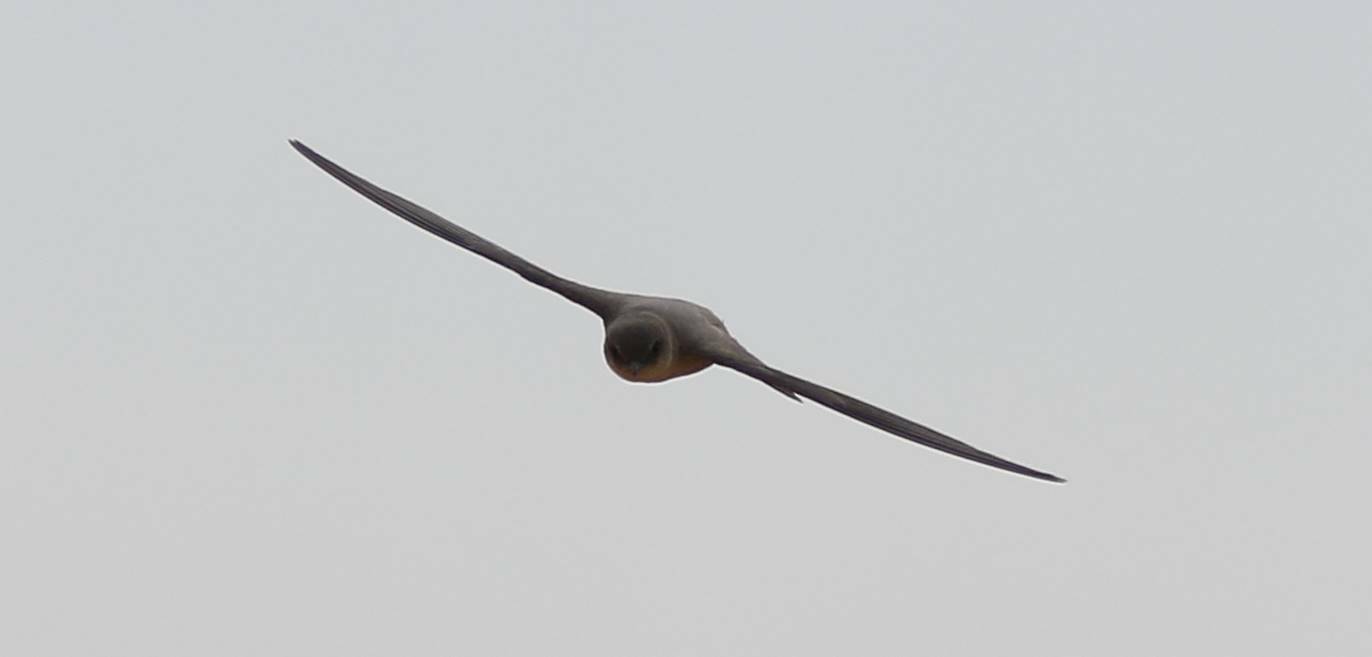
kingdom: Animalia
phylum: Chordata
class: Aves
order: Passeriformes
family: Hirundinidae
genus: Ptyonoprogne
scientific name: Ptyonoprogne fuligula
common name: Rock martin
